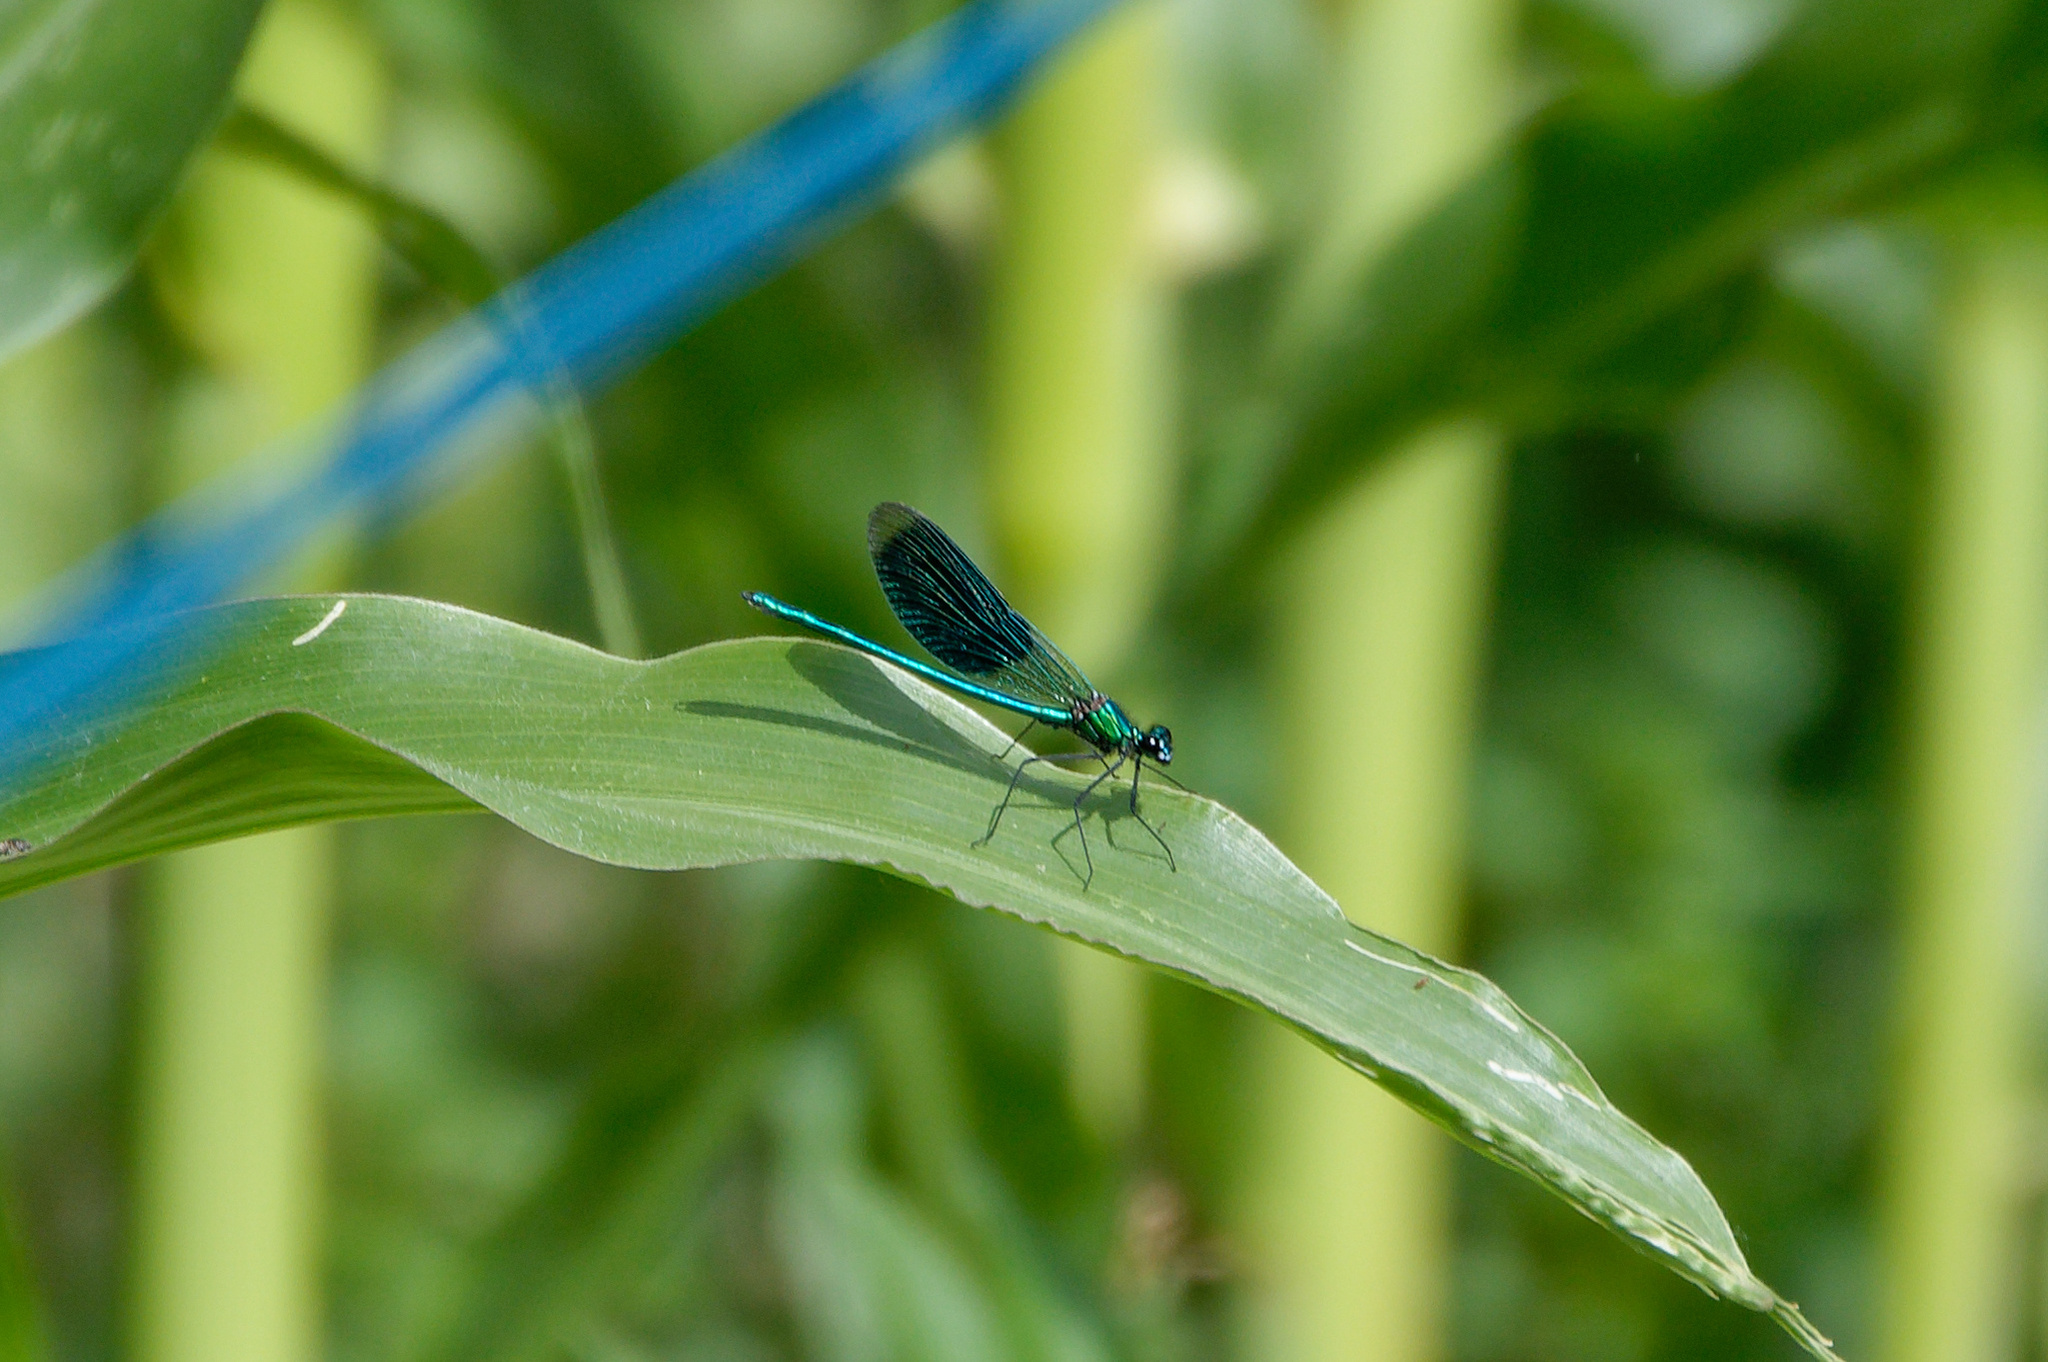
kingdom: Animalia
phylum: Arthropoda
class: Insecta
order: Odonata
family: Calopterygidae
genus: Calopteryx
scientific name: Calopteryx splendens
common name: Banded demoiselle
